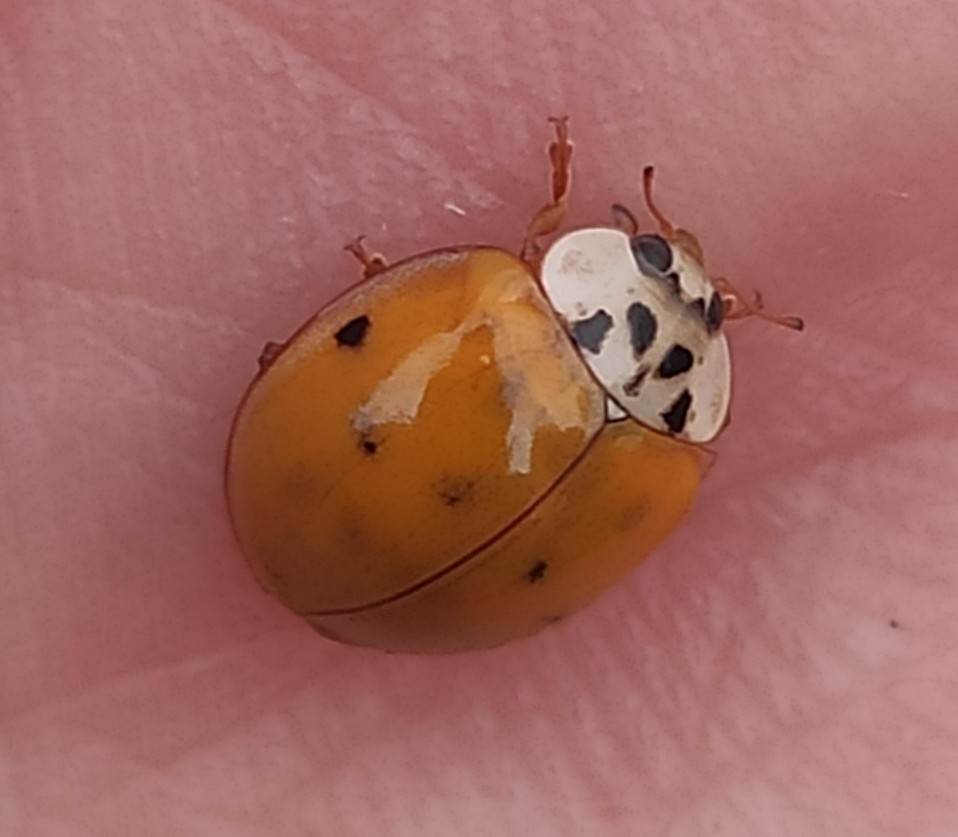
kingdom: Animalia
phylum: Arthropoda
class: Insecta
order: Coleoptera
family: Coccinellidae
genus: Harmonia
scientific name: Harmonia axyridis
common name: Harlequin ladybird
